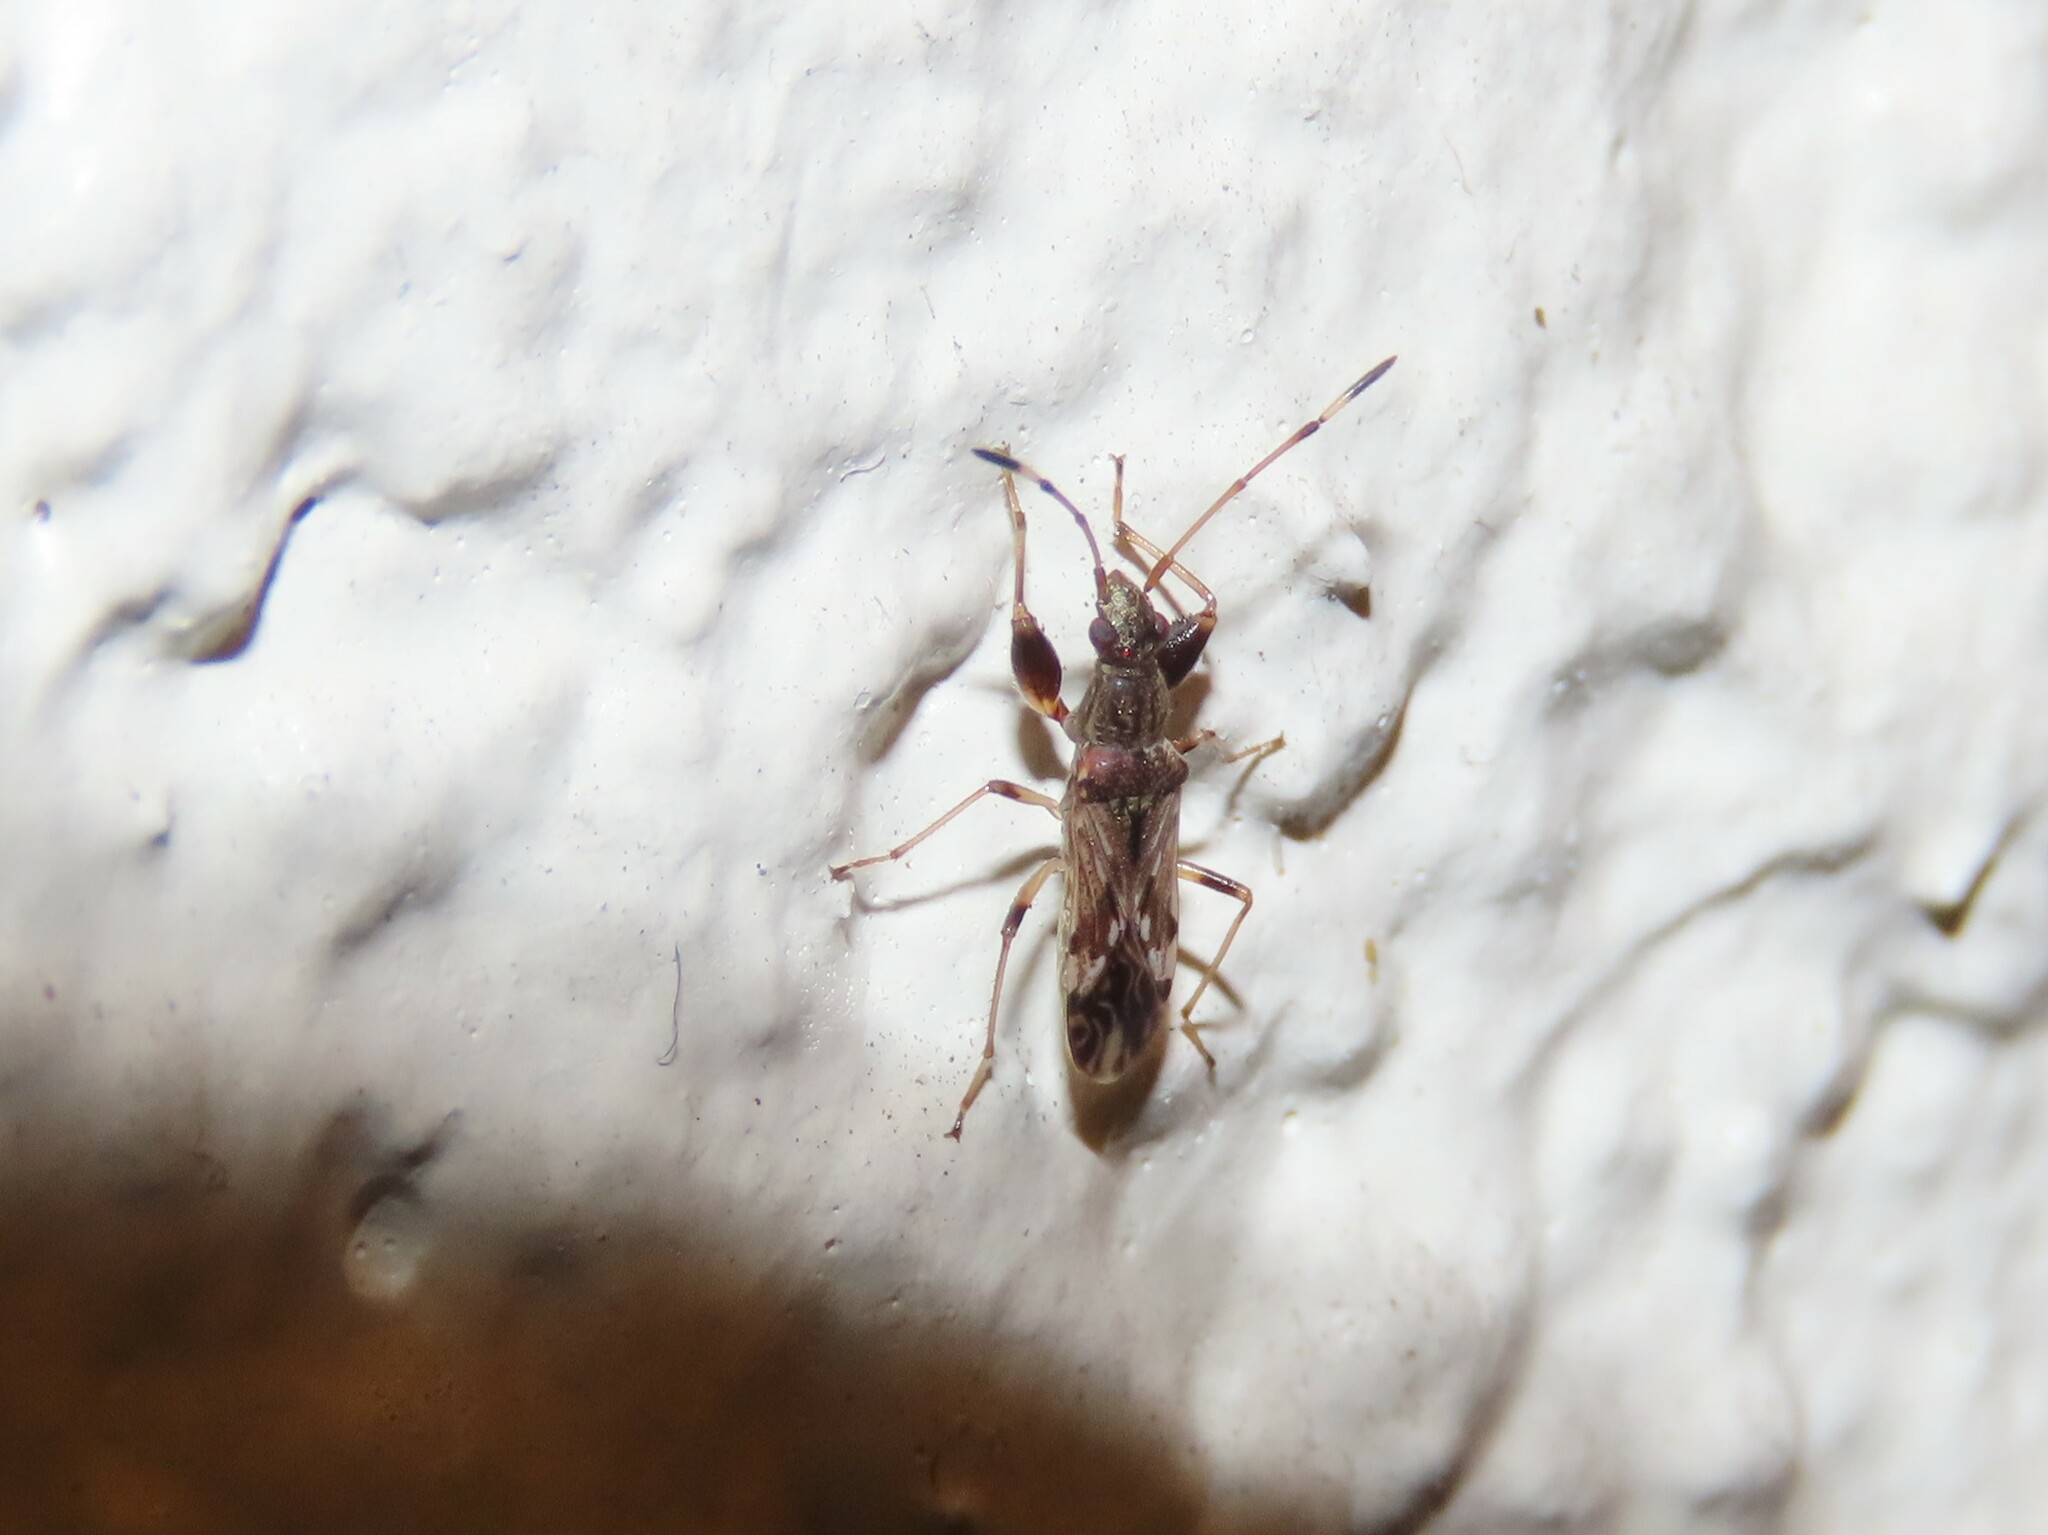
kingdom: Animalia
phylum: Arthropoda
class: Insecta
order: Hemiptera
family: Rhyparochromidae
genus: Neopamera
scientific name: Neopamera albocincta
